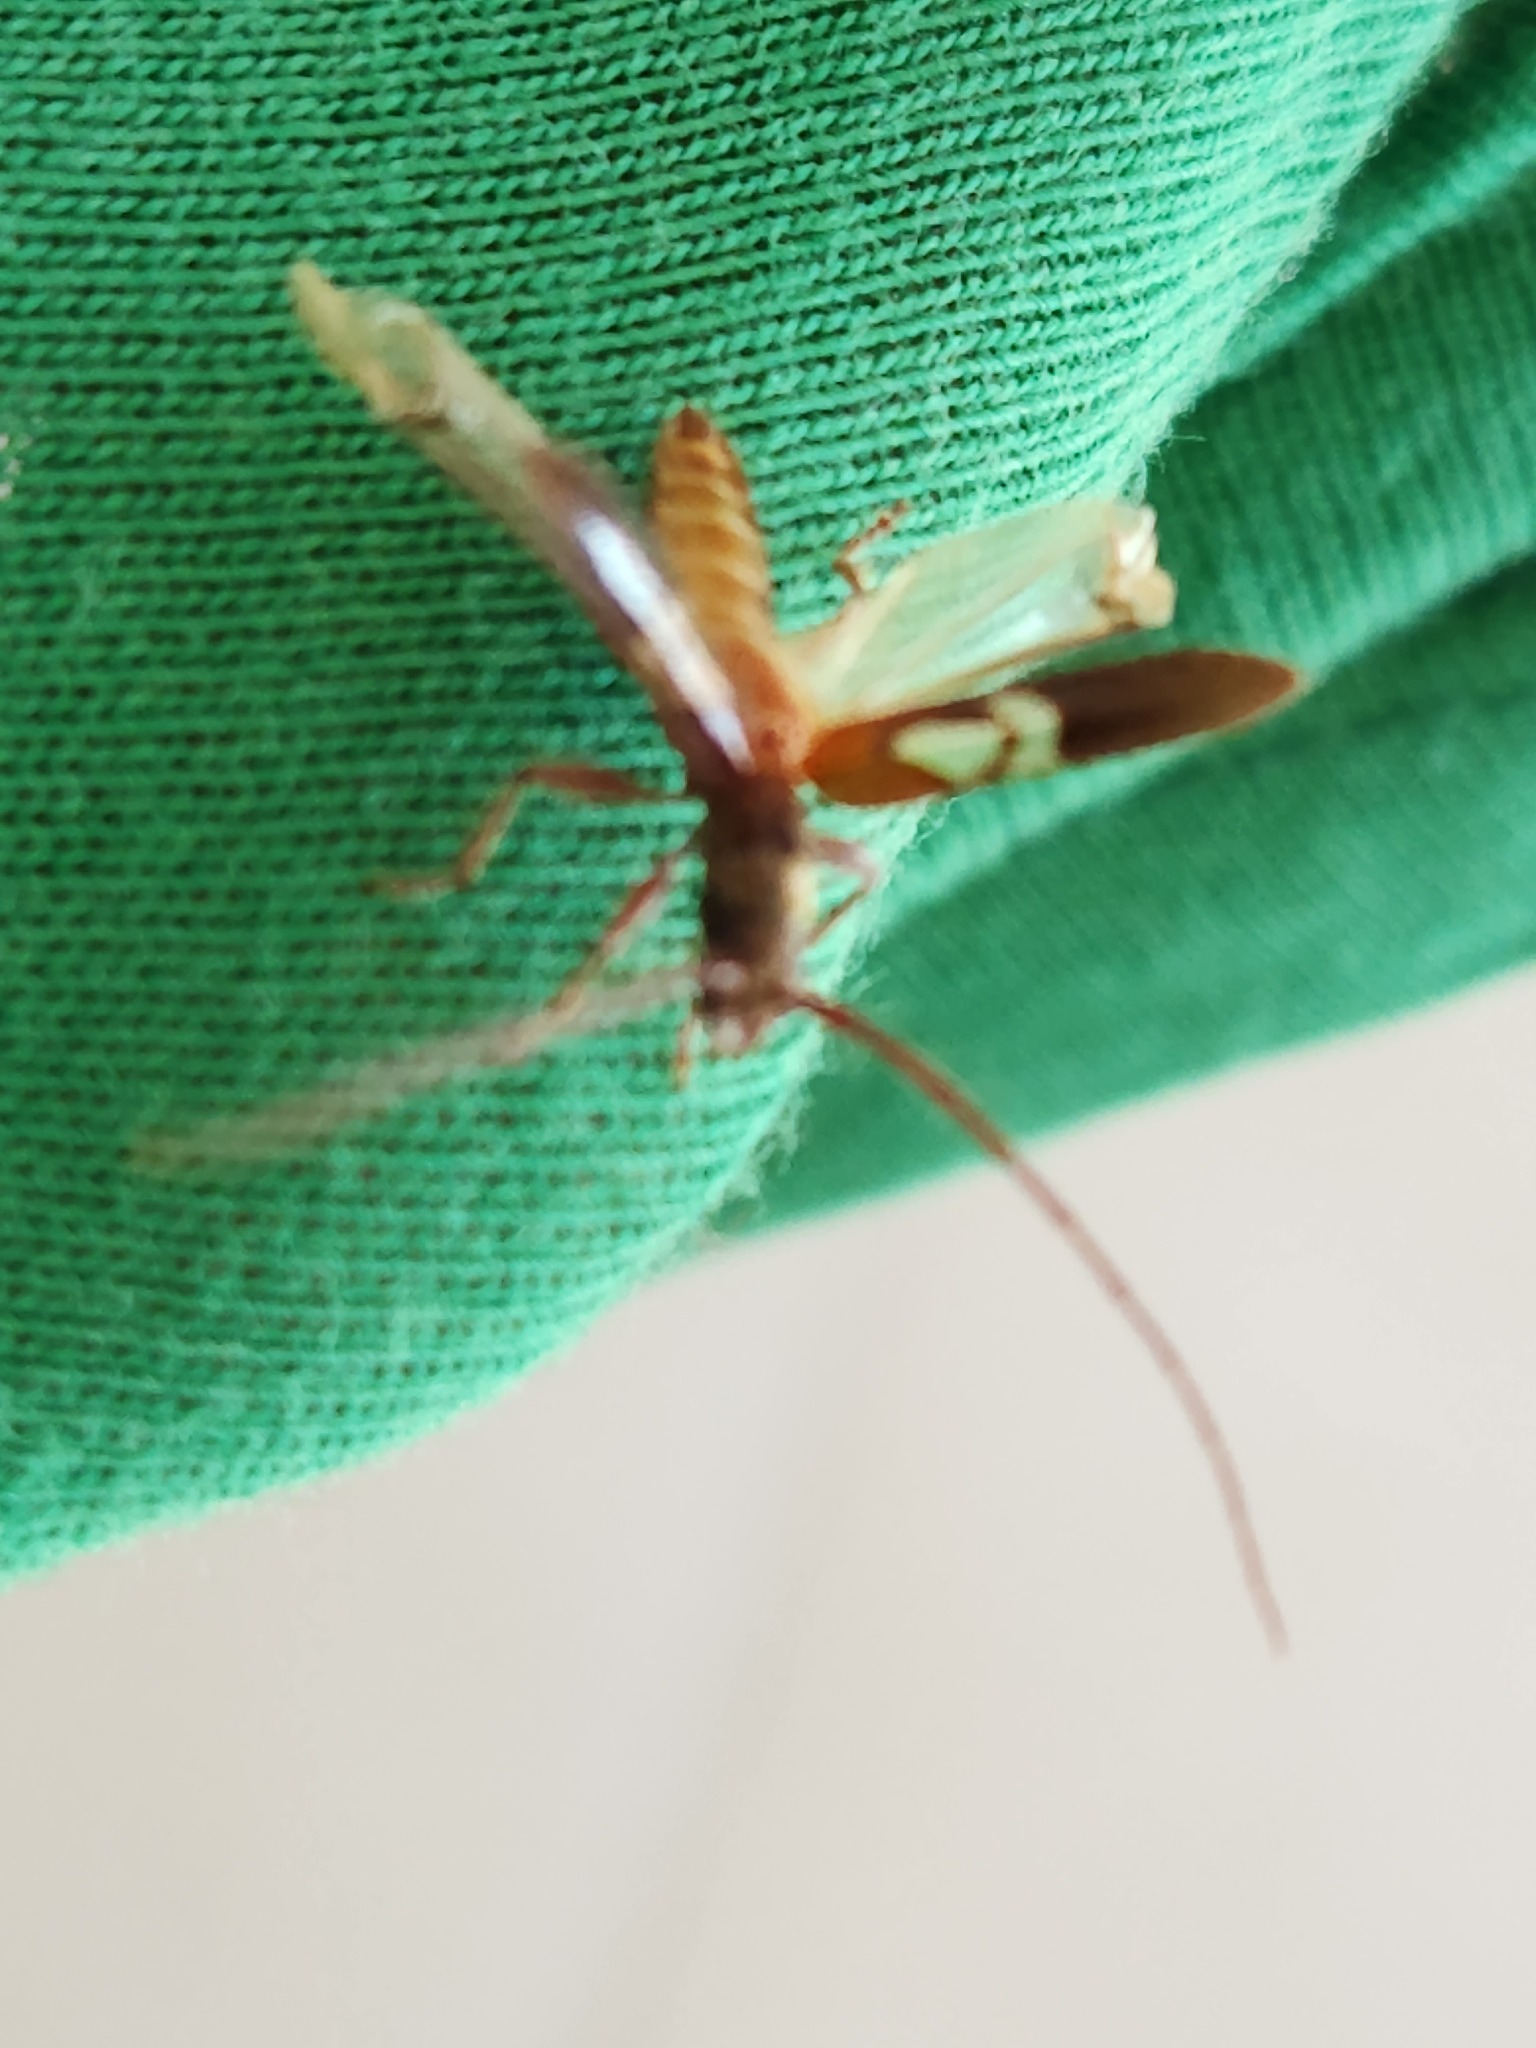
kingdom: Animalia
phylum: Arthropoda
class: Insecta
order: Coleoptera
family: Cerambycidae
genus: Compsibidion
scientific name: Compsibidion fairmairei
